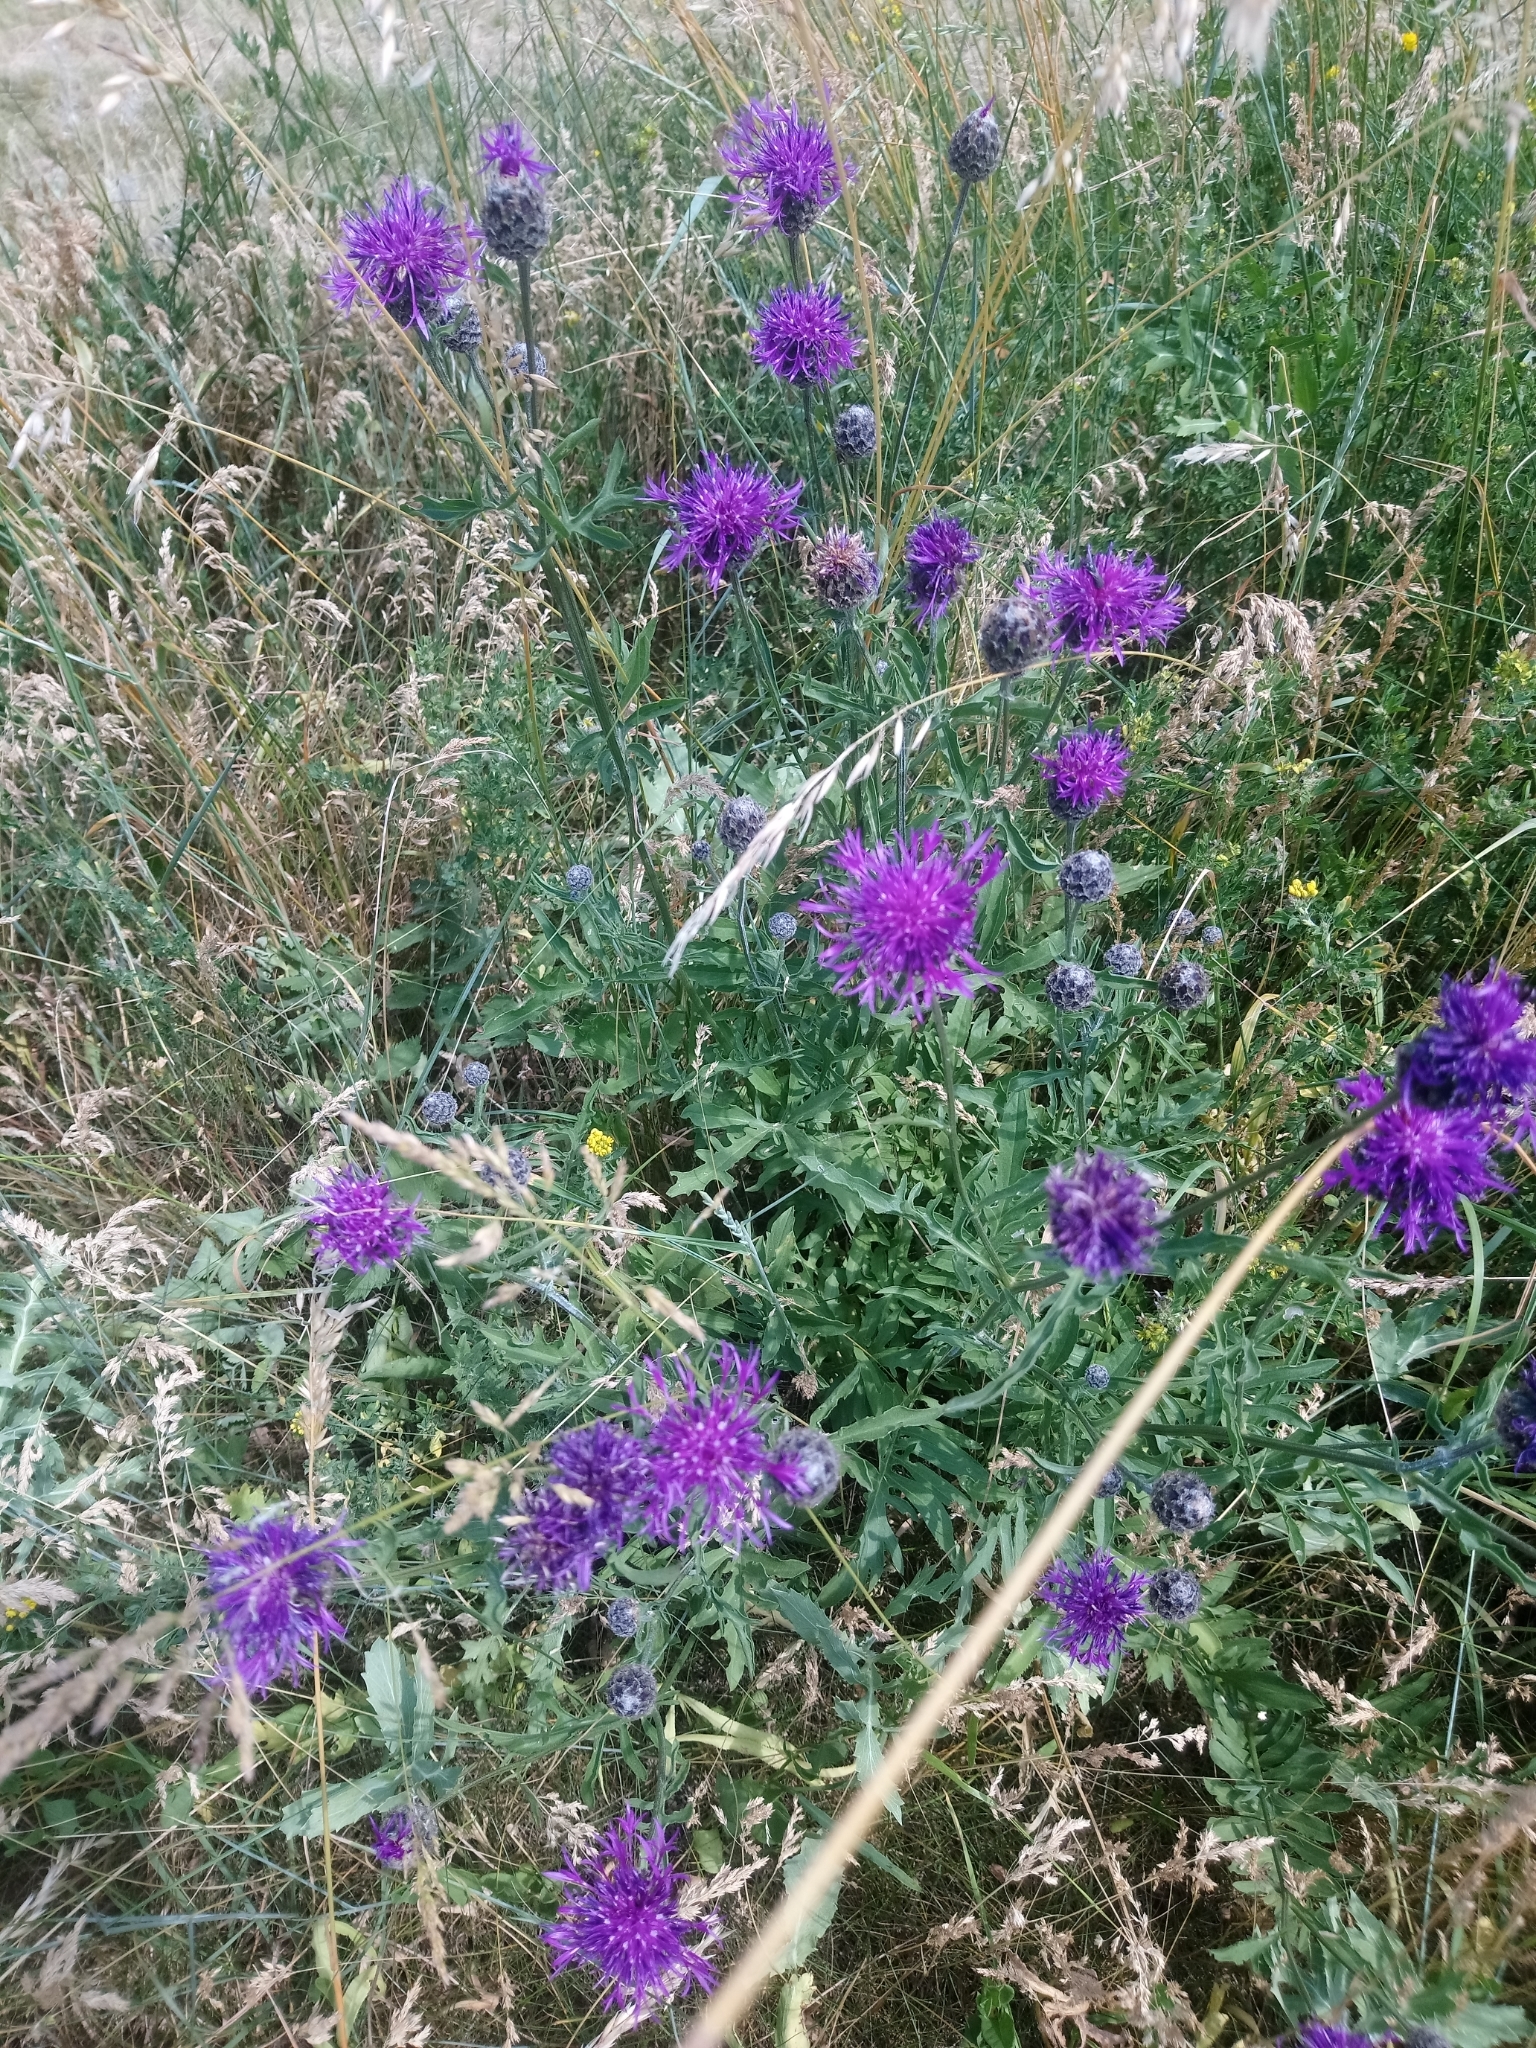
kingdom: Plantae
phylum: Tracheophyta
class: Magnoliopsida
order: Asterales
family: Asteraceae
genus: Centaurea
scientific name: Centaurea scabiosa
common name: Greater knapweed
